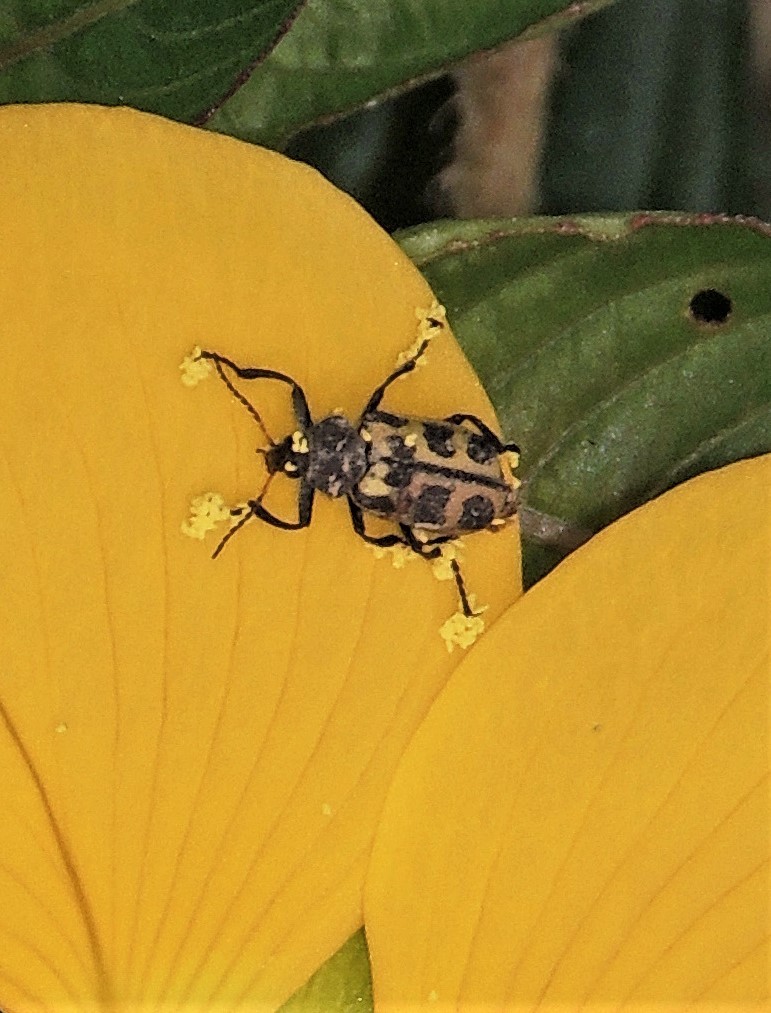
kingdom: Animalia
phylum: Arthropoda
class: Insecta
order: Coleoptera
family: Melyridae
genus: Astylus
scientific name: Astylus atromaculatus
